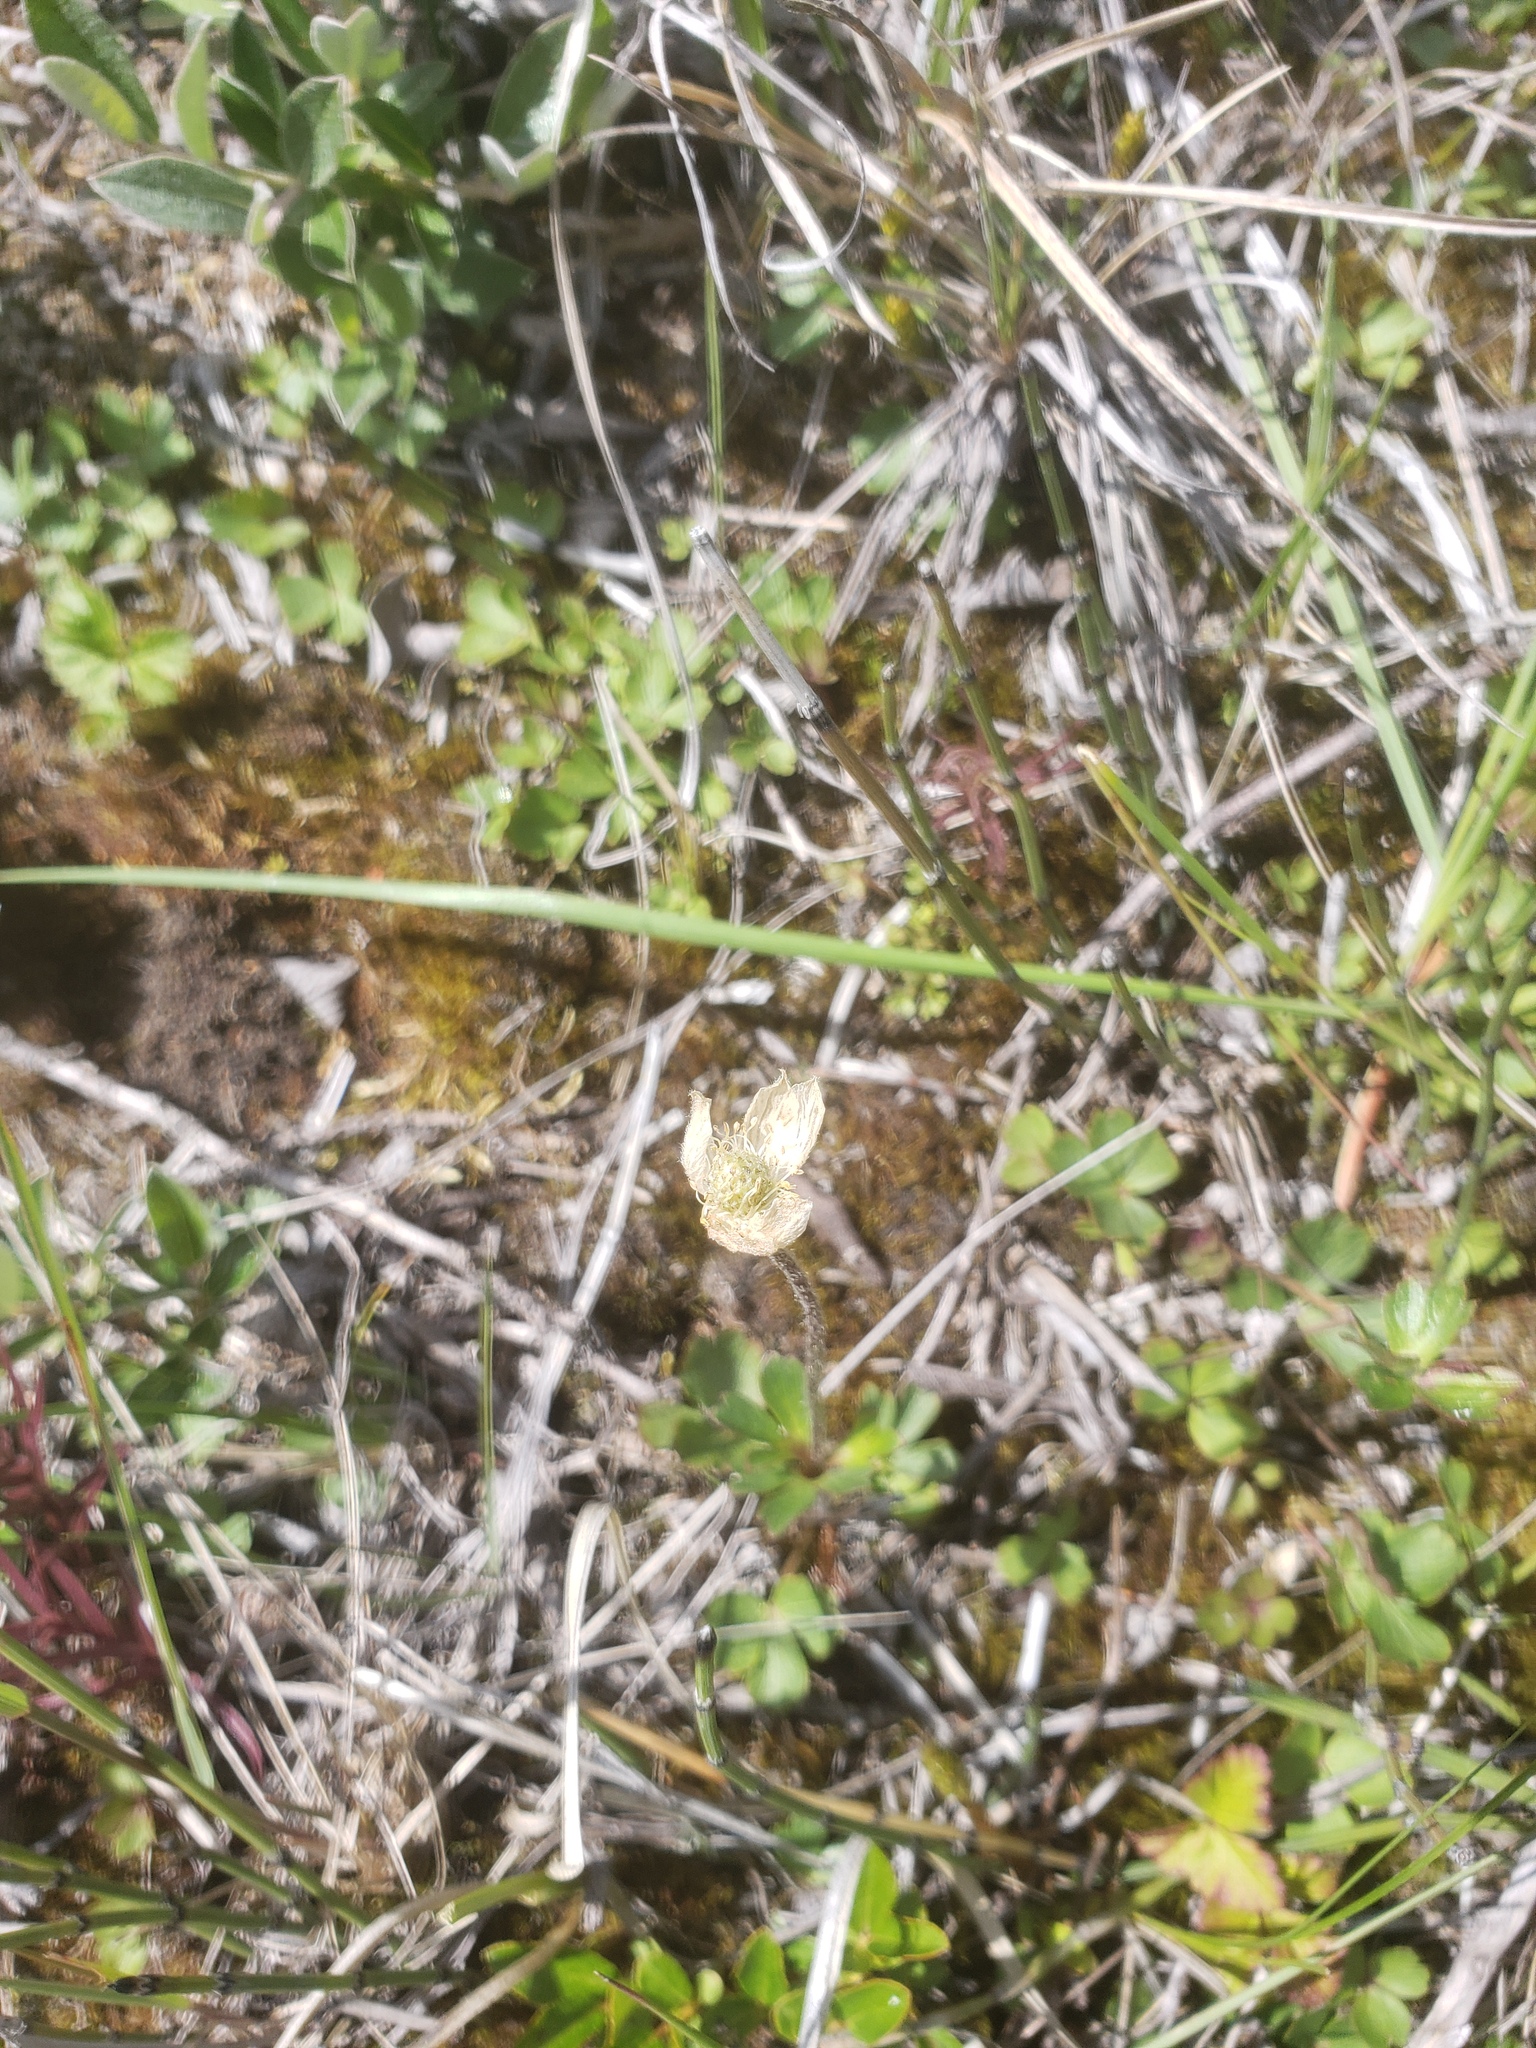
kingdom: Plantae
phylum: Tracheophyta
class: Magnoliopsida
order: Ranunculales
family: Ranunculaceae
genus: Anemone
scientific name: Anemone parviflora
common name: Northern anemone
